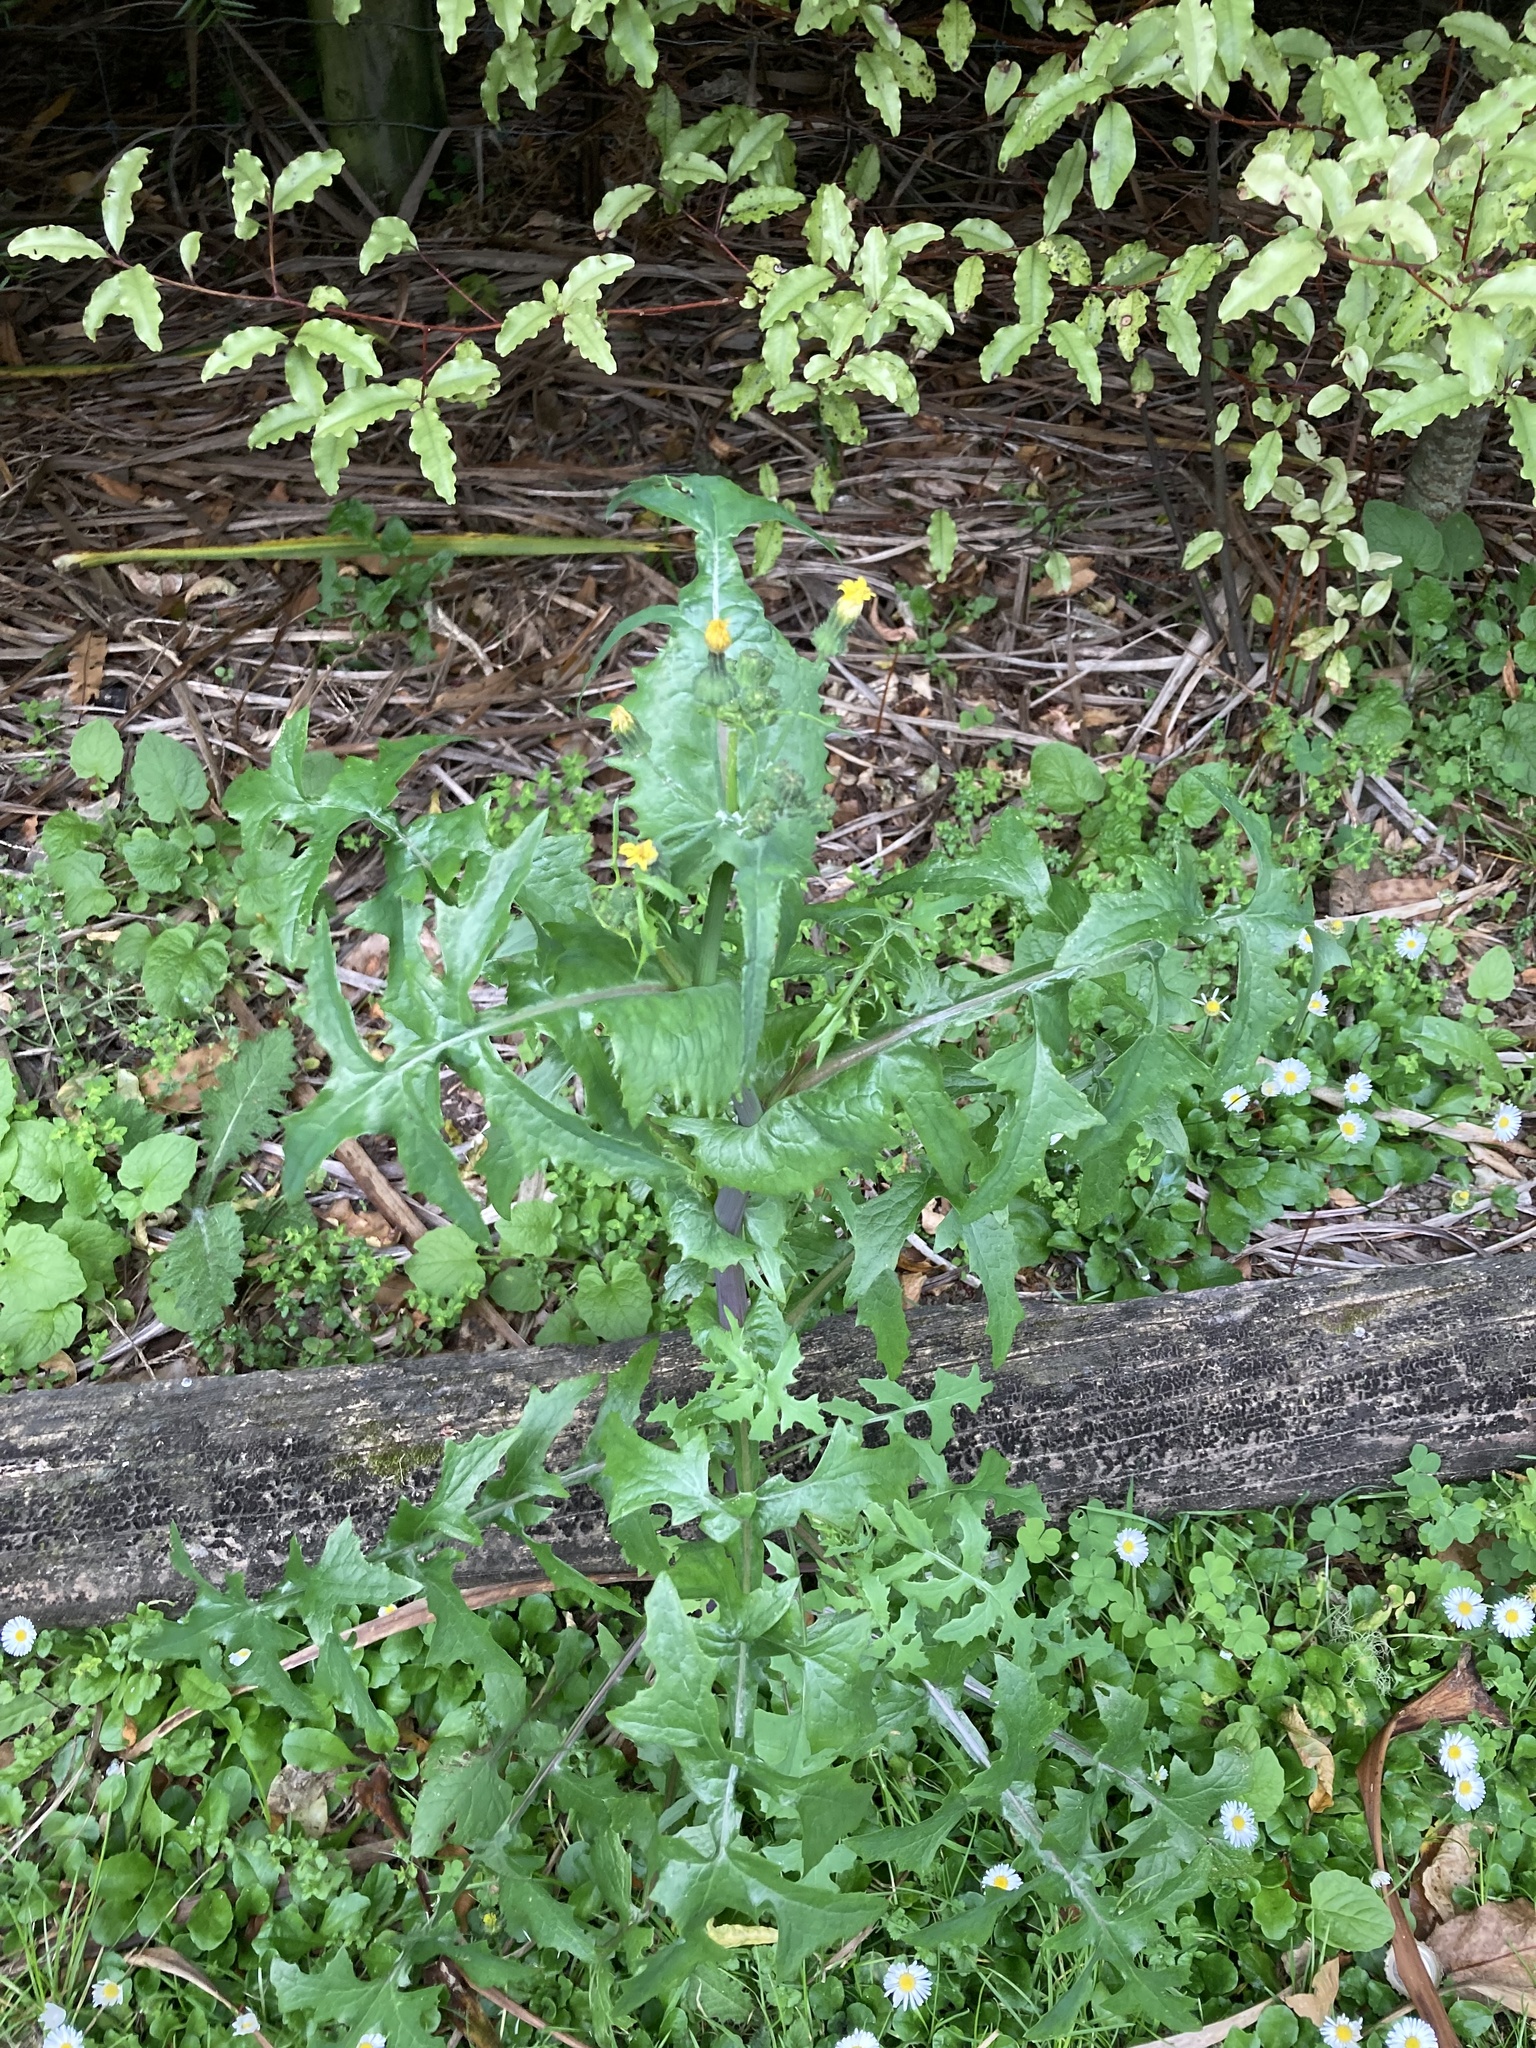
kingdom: Plantae
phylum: Tracheophyta
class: Magnoliopsida
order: Asterales
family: Asteraceae
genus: Sonchus
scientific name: Sonchus oleraceus
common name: Common sowthistle
